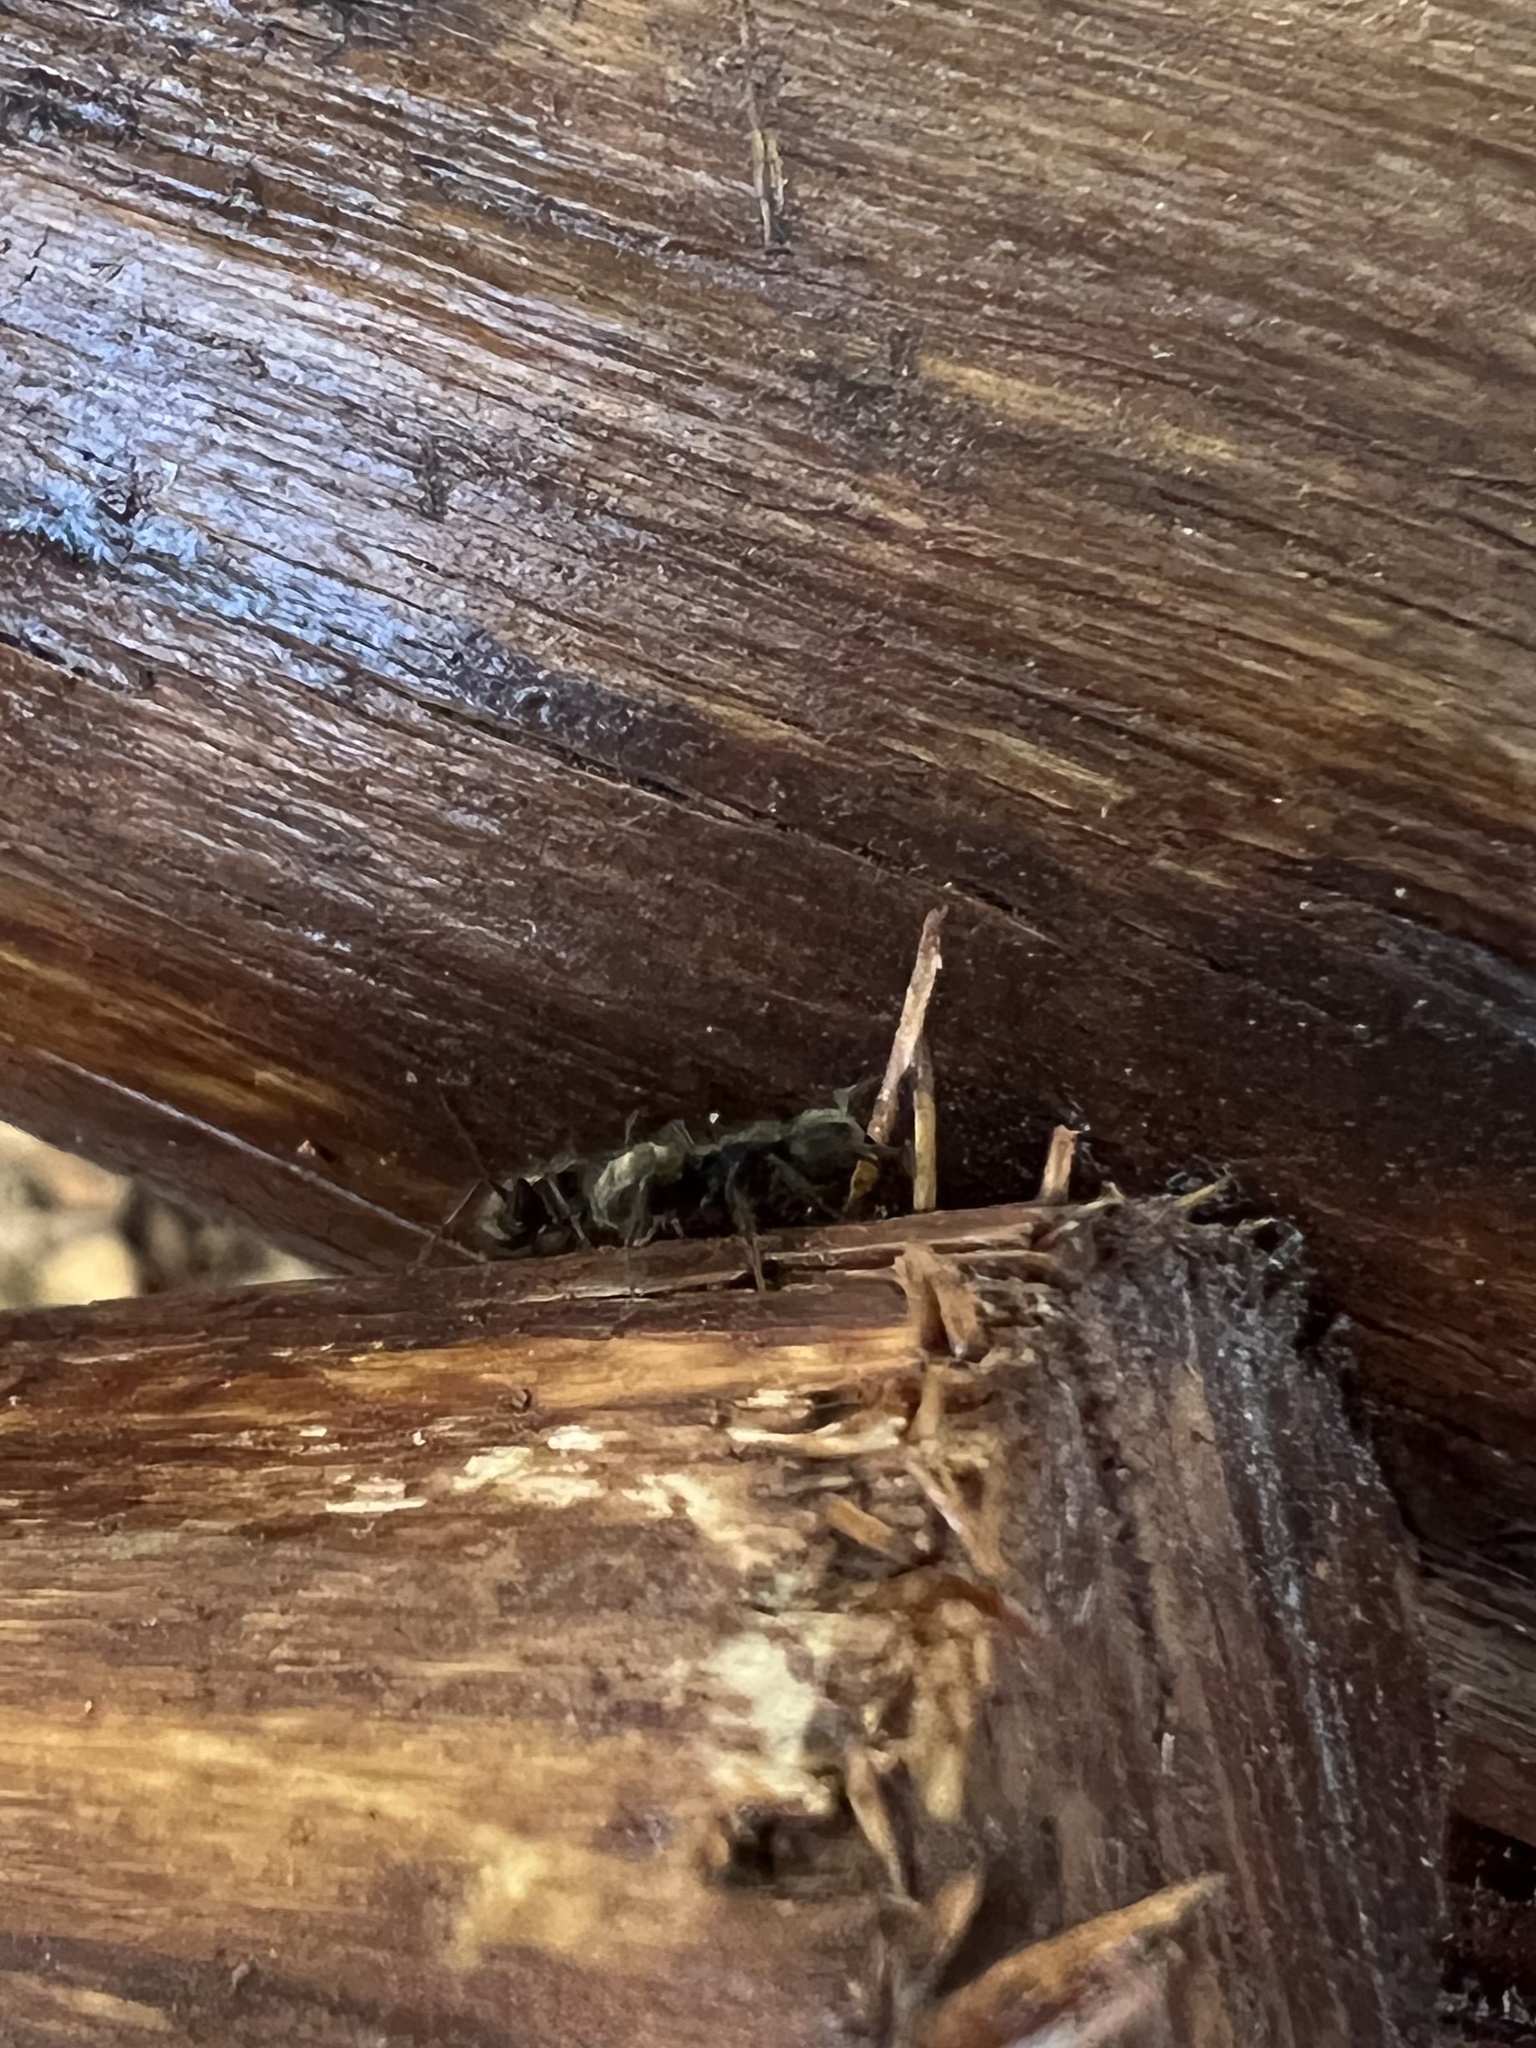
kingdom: Animalia
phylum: Arthropoda
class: Insecta
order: Hymenoptera
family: Formicidae
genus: Dolichoderus
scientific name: Dolichoderus bispinosus
